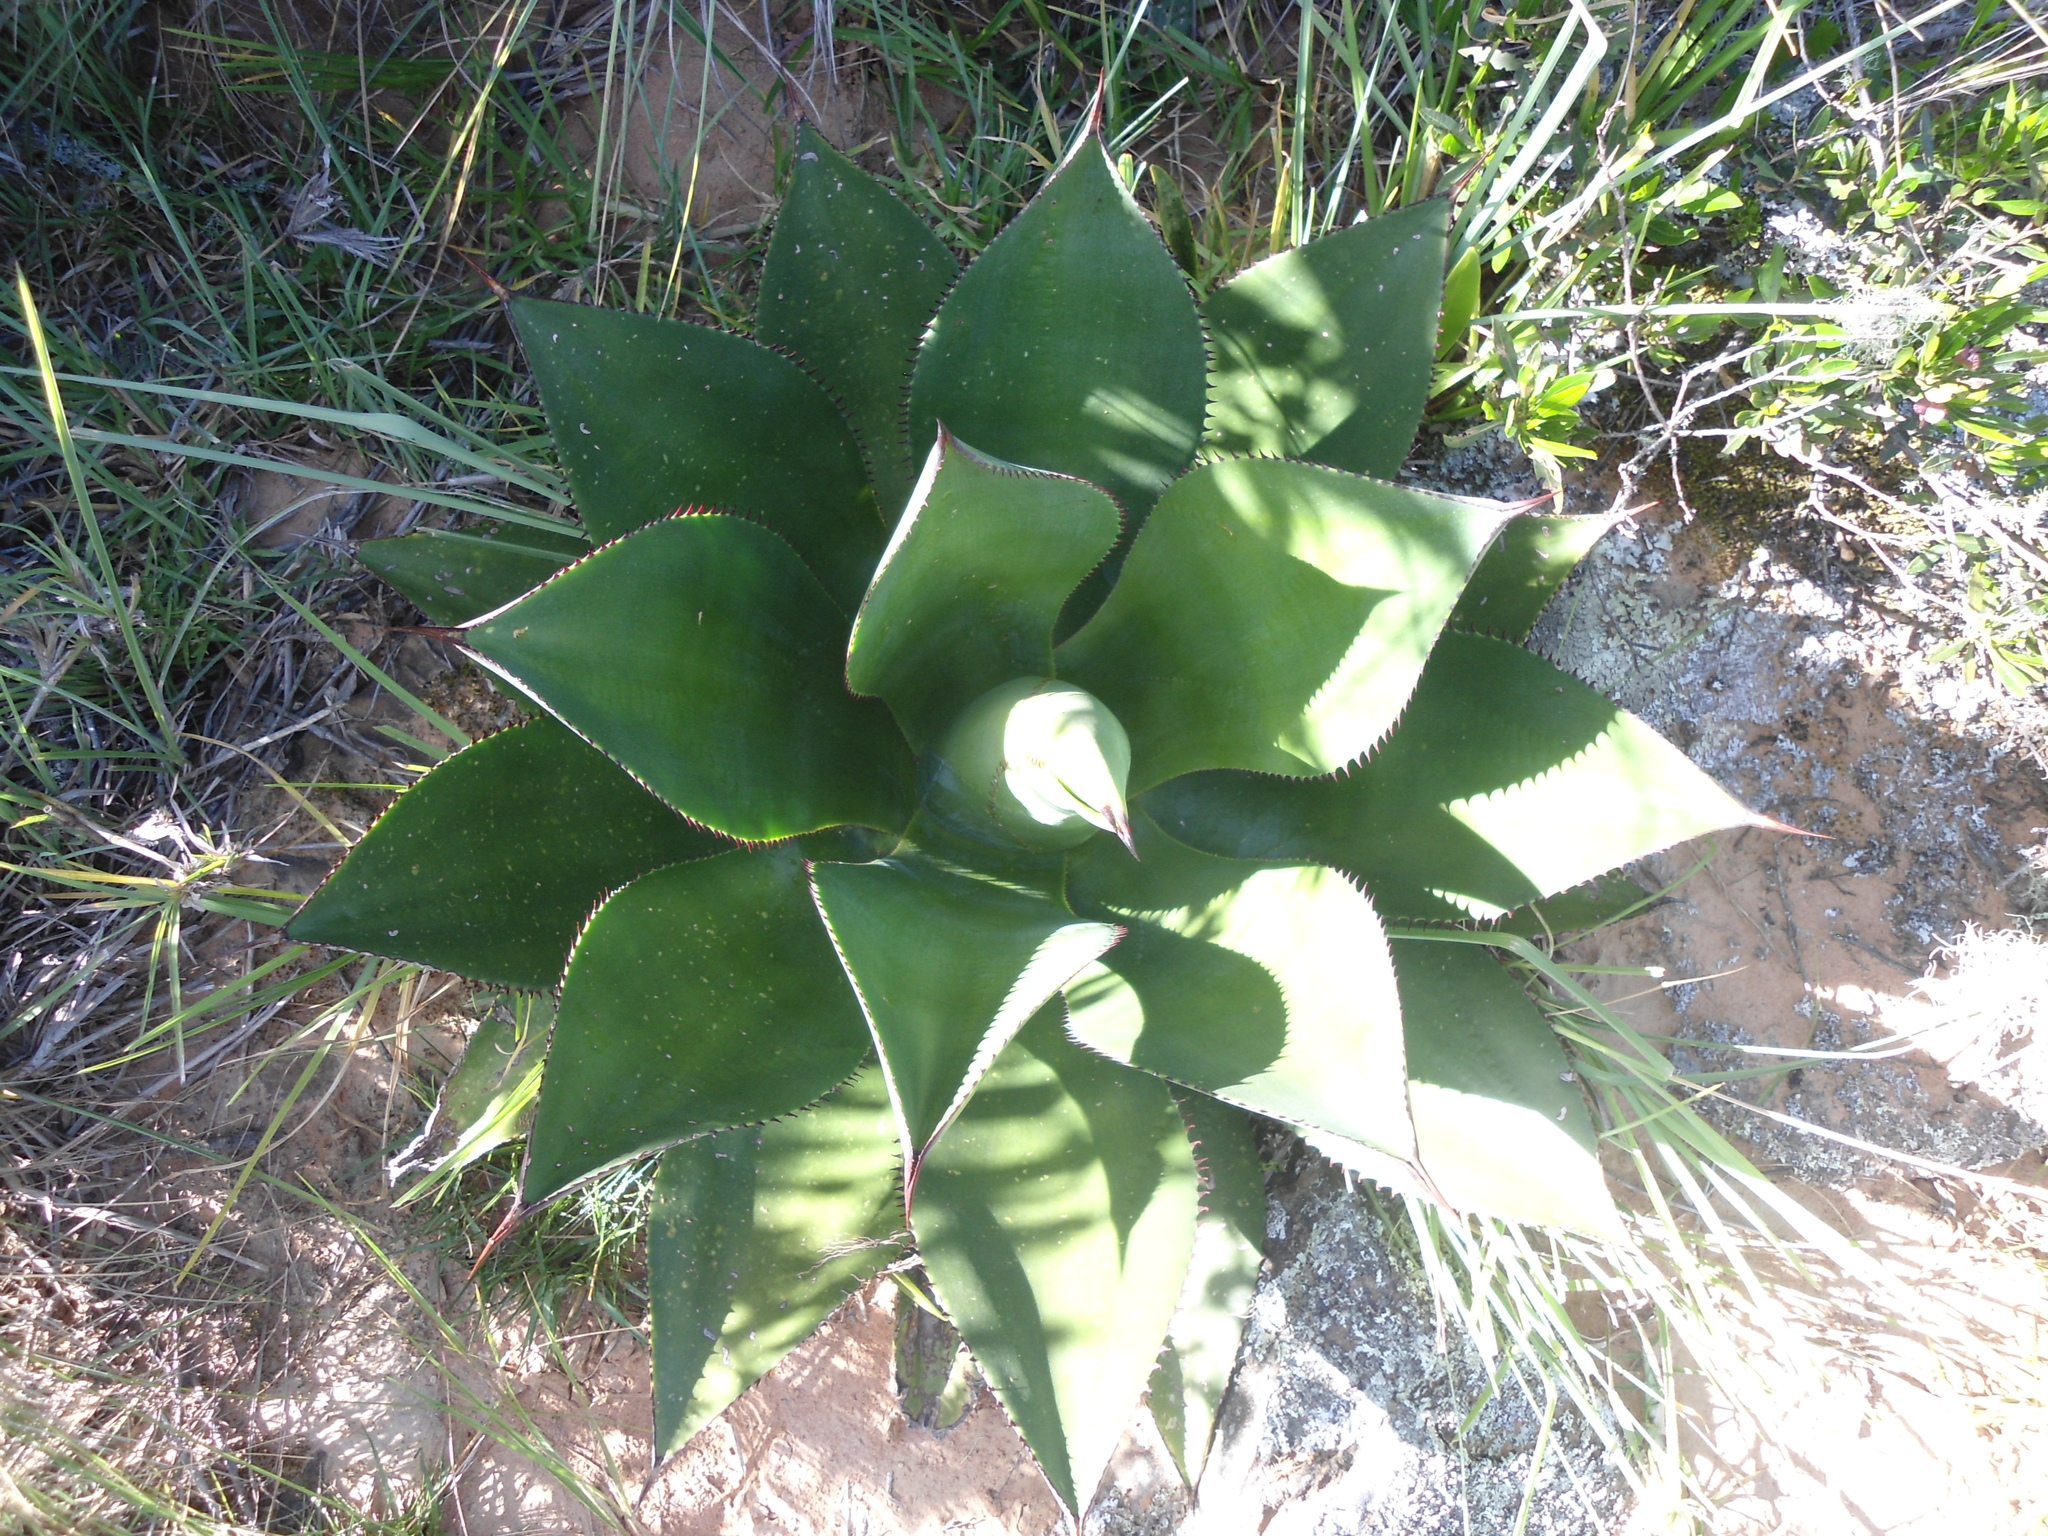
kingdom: Plantae
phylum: Tracheophyta
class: Liliopsida
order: Asparagales
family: Asparagaceae
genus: Agave
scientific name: Agave sylvesteriana
